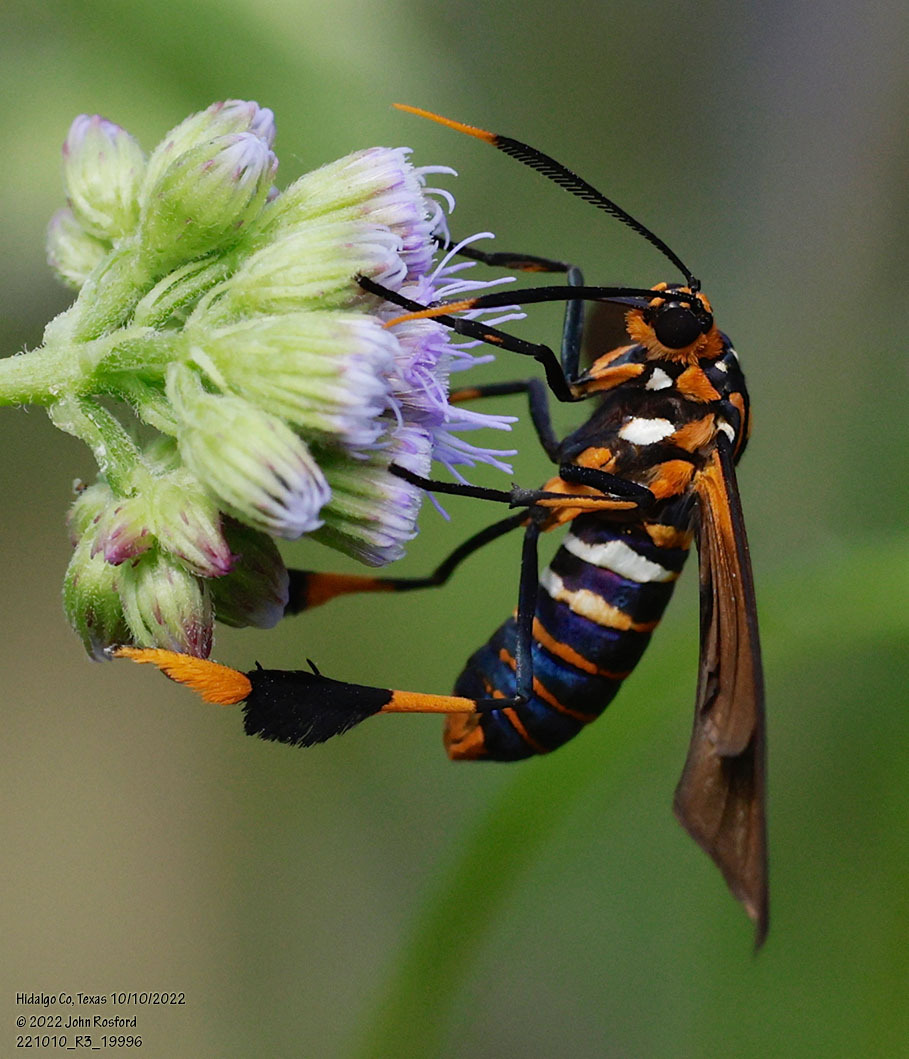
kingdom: Animalia
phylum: Arthropoda
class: Insecta
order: Lepidoptera
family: Erebidae
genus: Horama
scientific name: Horama panthalon
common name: Texas wasp moth
